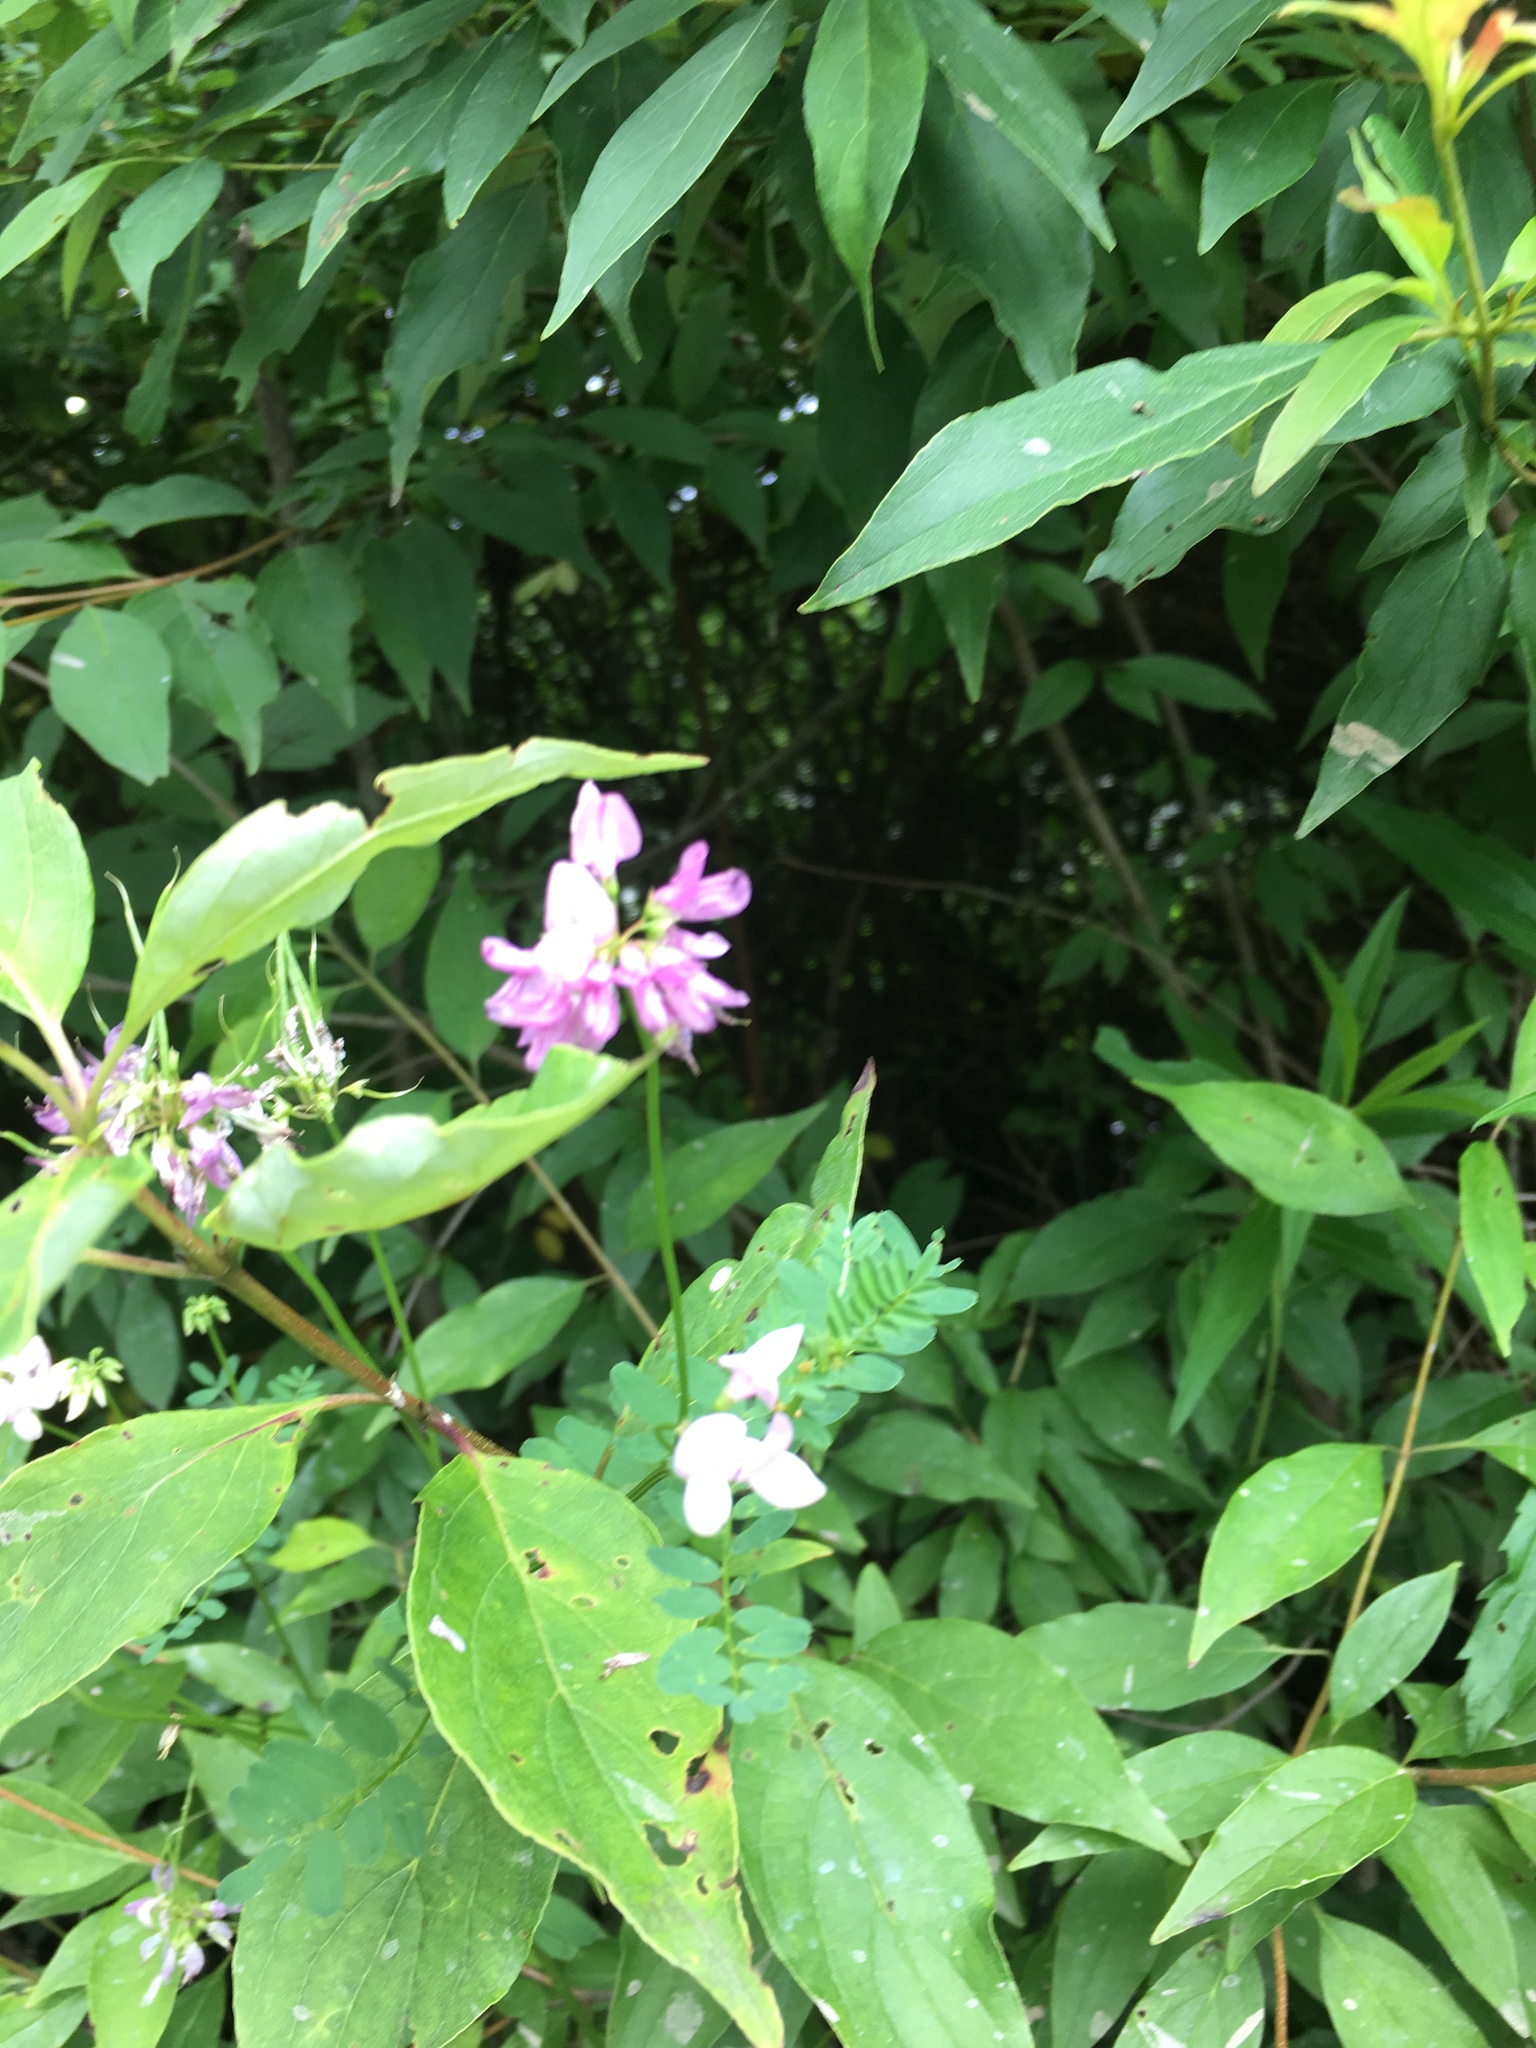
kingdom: Plantae
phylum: Tracheophyta
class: Magnoliopsida
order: Fabales
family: Fabaceae
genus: Coronilla
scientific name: Coronilla varia
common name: Crownvetch
